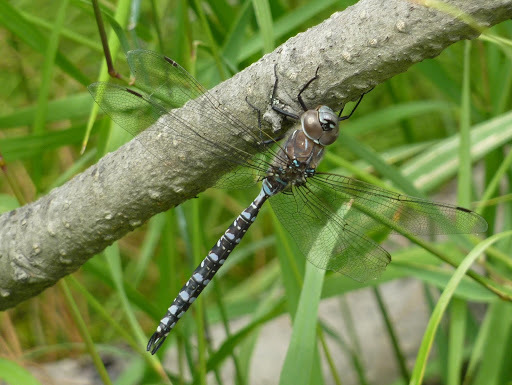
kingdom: Animalia
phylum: Arthropoda
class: Insecta
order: Odonata
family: Aeshnidae
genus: Aeshna
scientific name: Aeshna interrupta
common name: Variable darner
